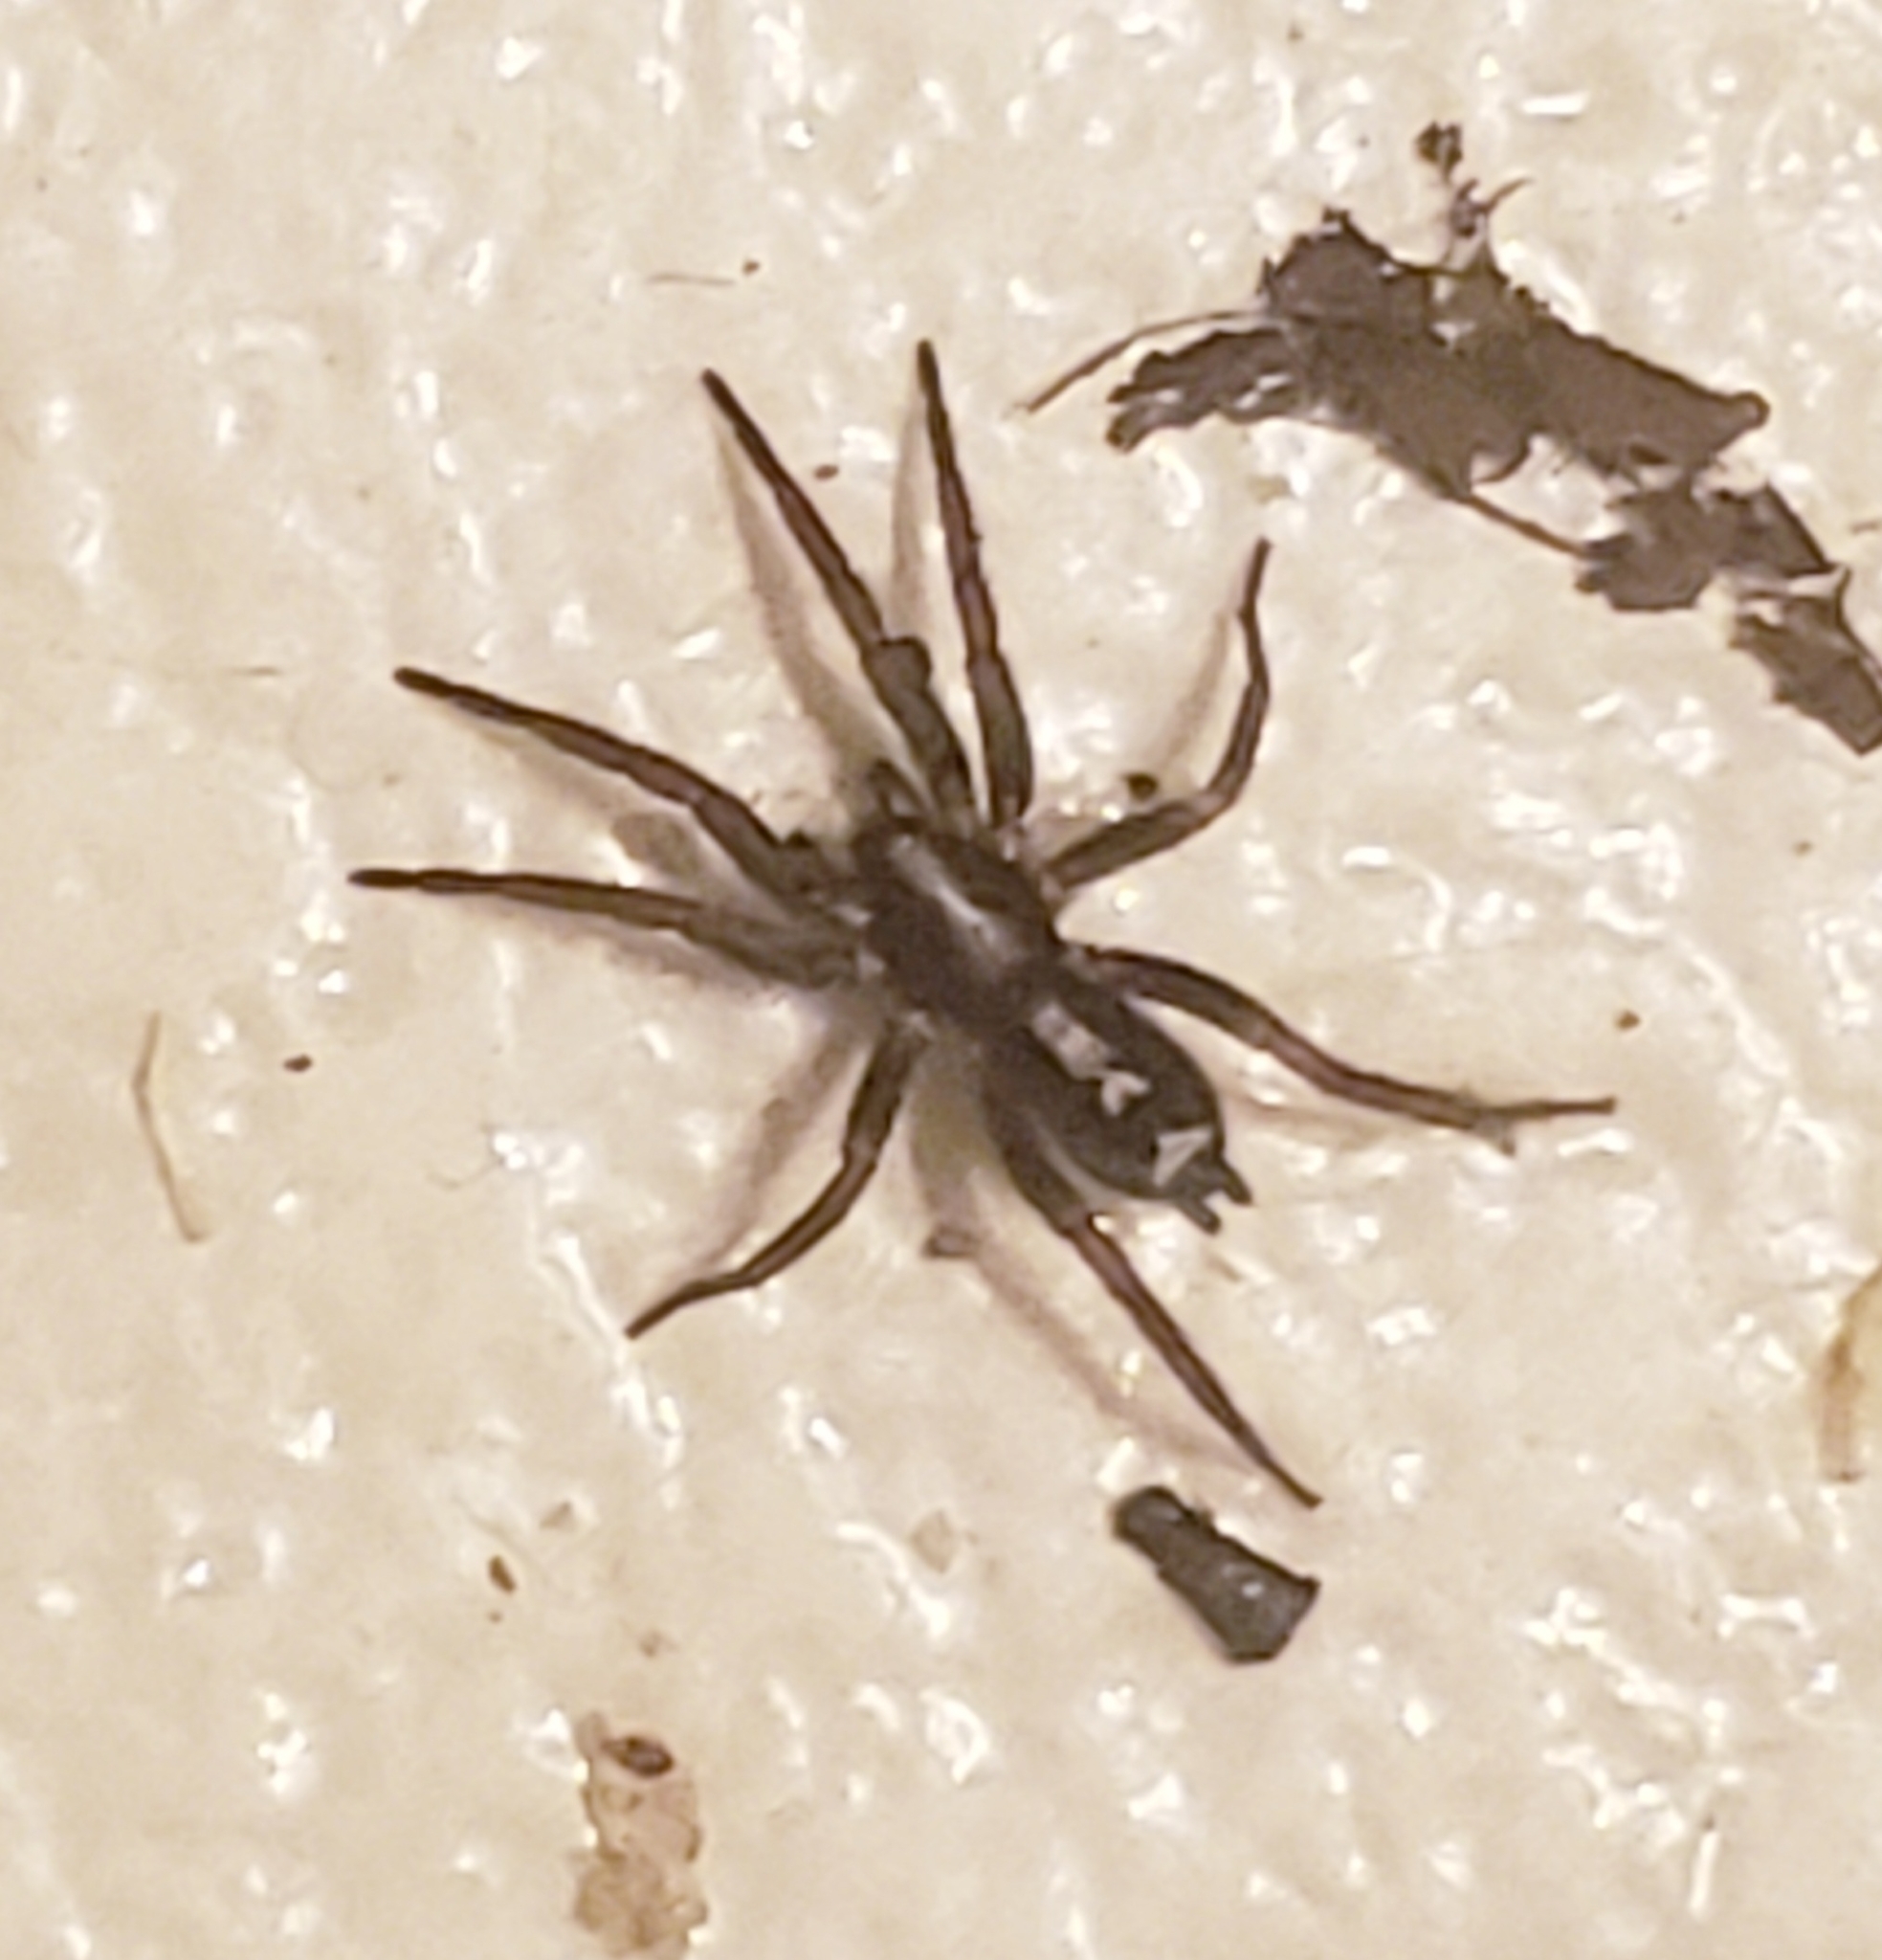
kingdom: Animalia
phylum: Arthropoda
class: Arachnida
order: Araneae
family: Gnaphosidae
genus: Herpyllus
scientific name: Herpyllus ecclesiasticus
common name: Eastern parson spider
